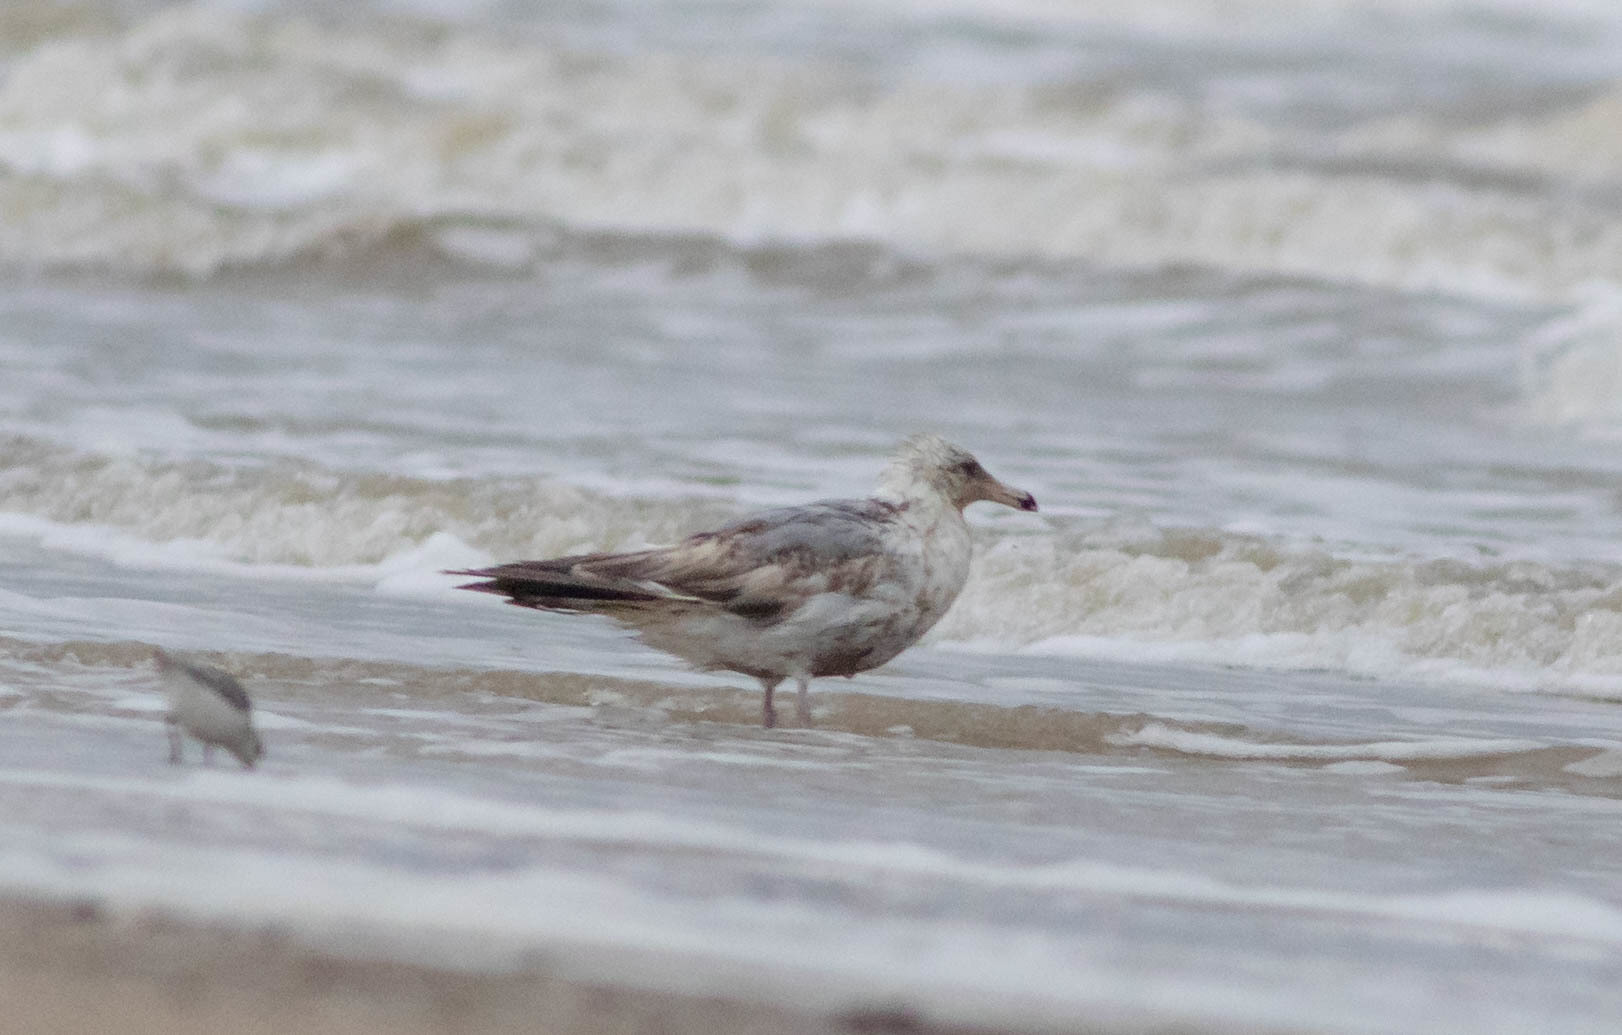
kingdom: Animalia
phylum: Chordata
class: Aves
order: Charadriiformes
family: Laridae
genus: Larus
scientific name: Larus argentatus
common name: Herring gull
